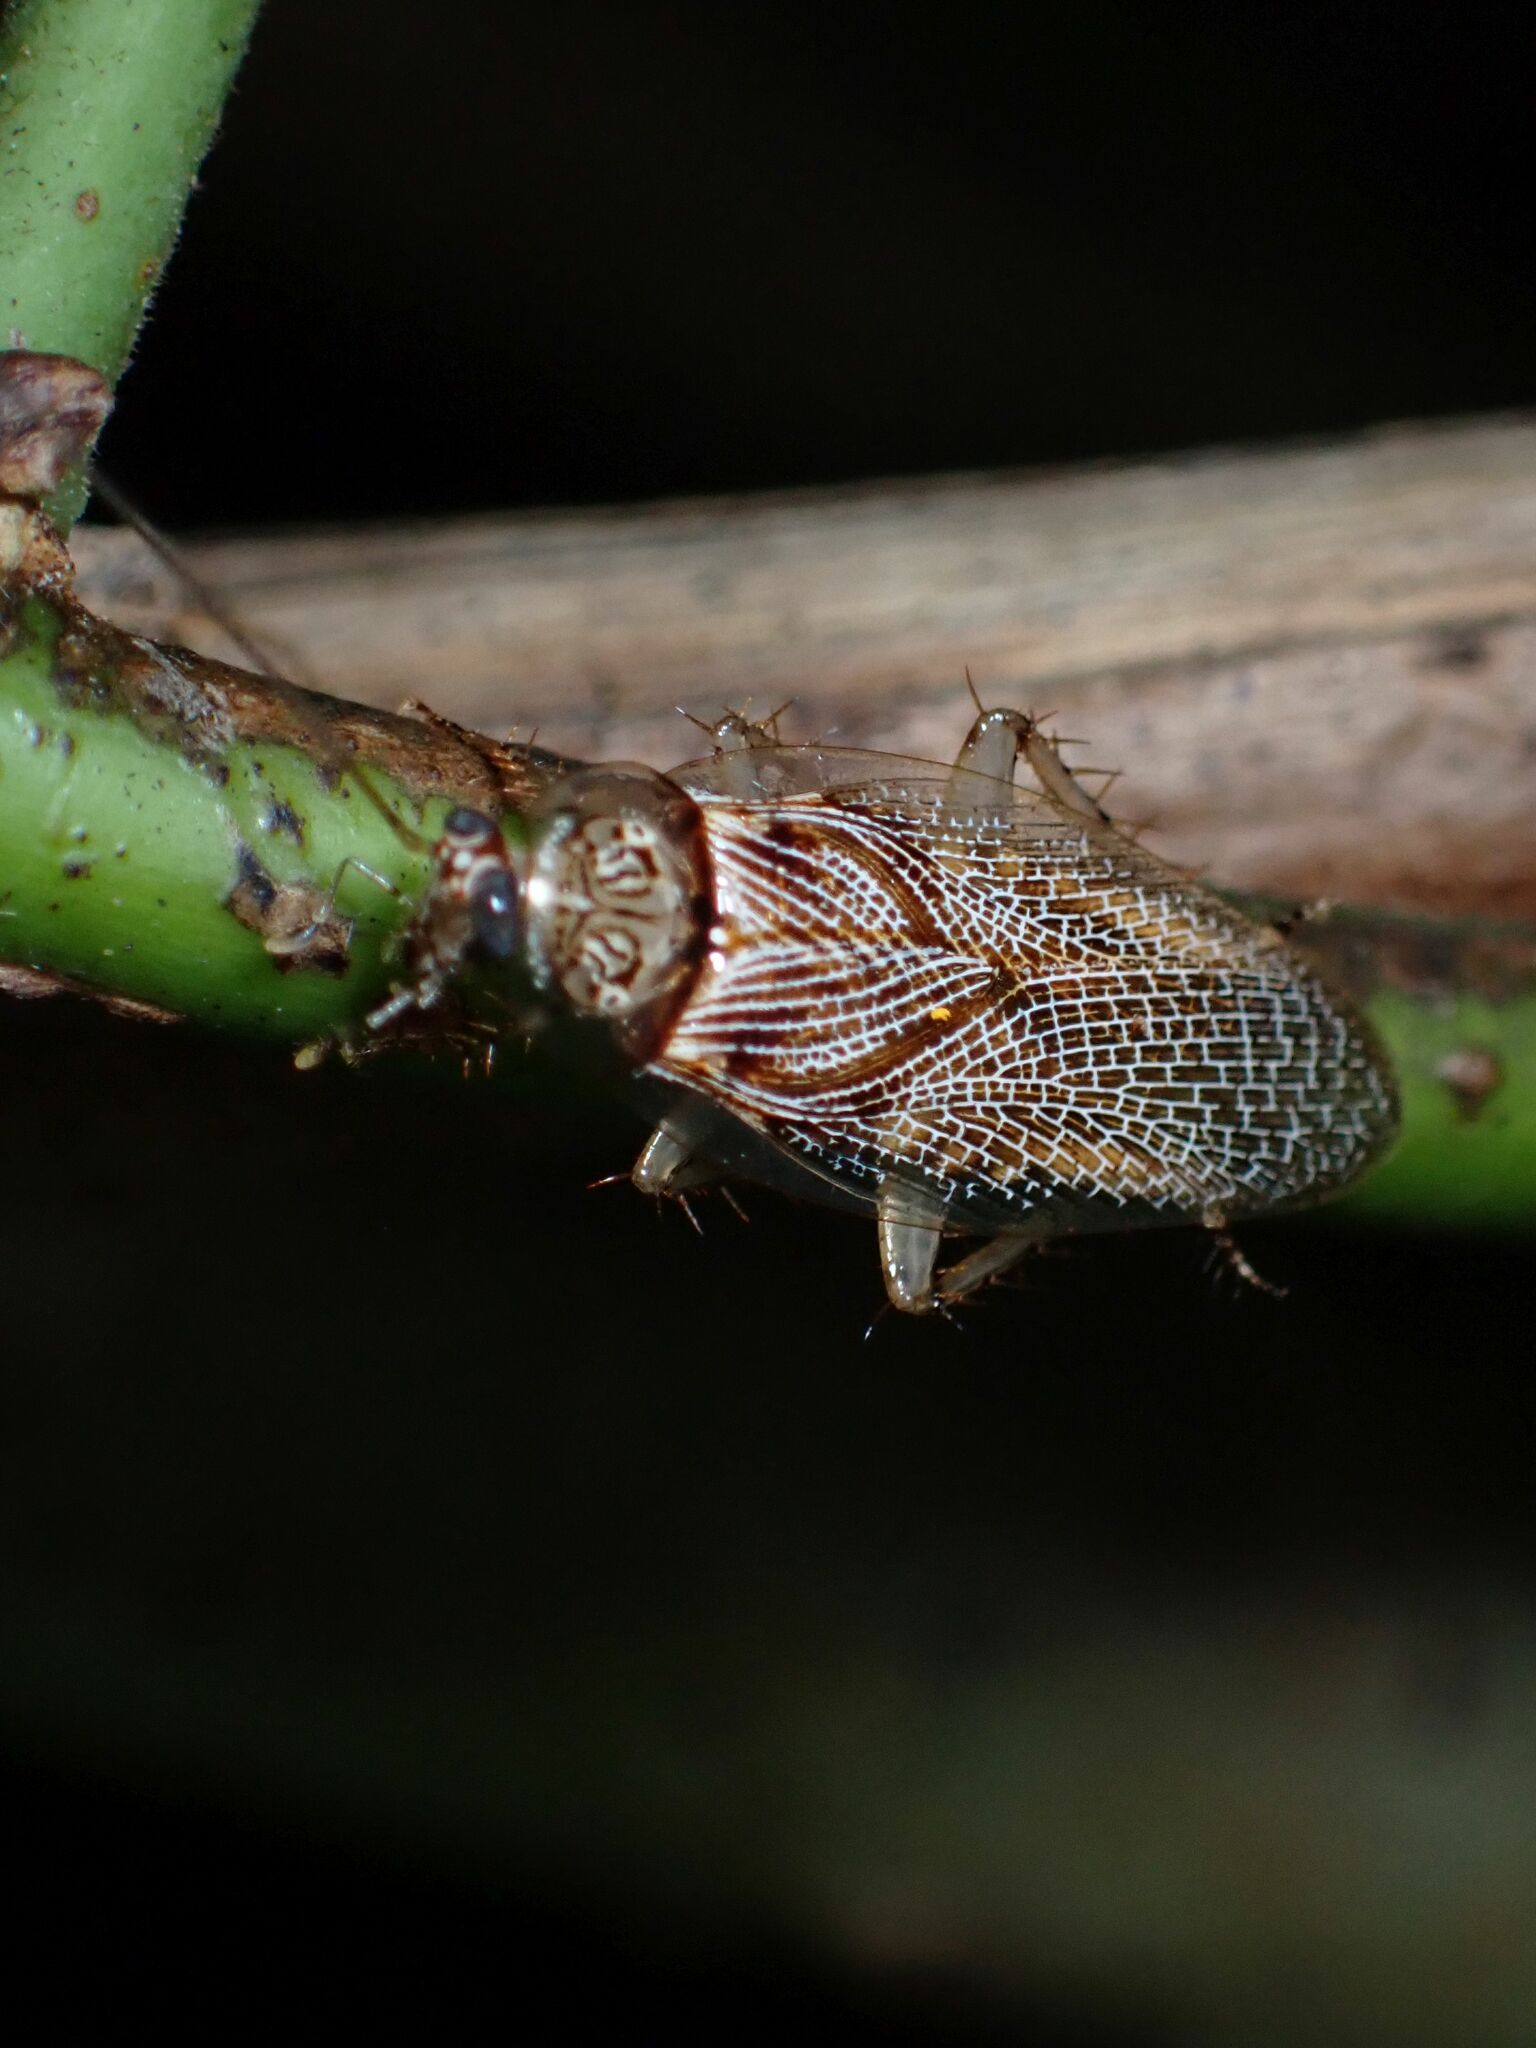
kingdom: Animalia
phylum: Arthropoda
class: Insecta
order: Blattodea
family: Ectobiidae
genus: Balta
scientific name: Balta notulata
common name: Cockroach
